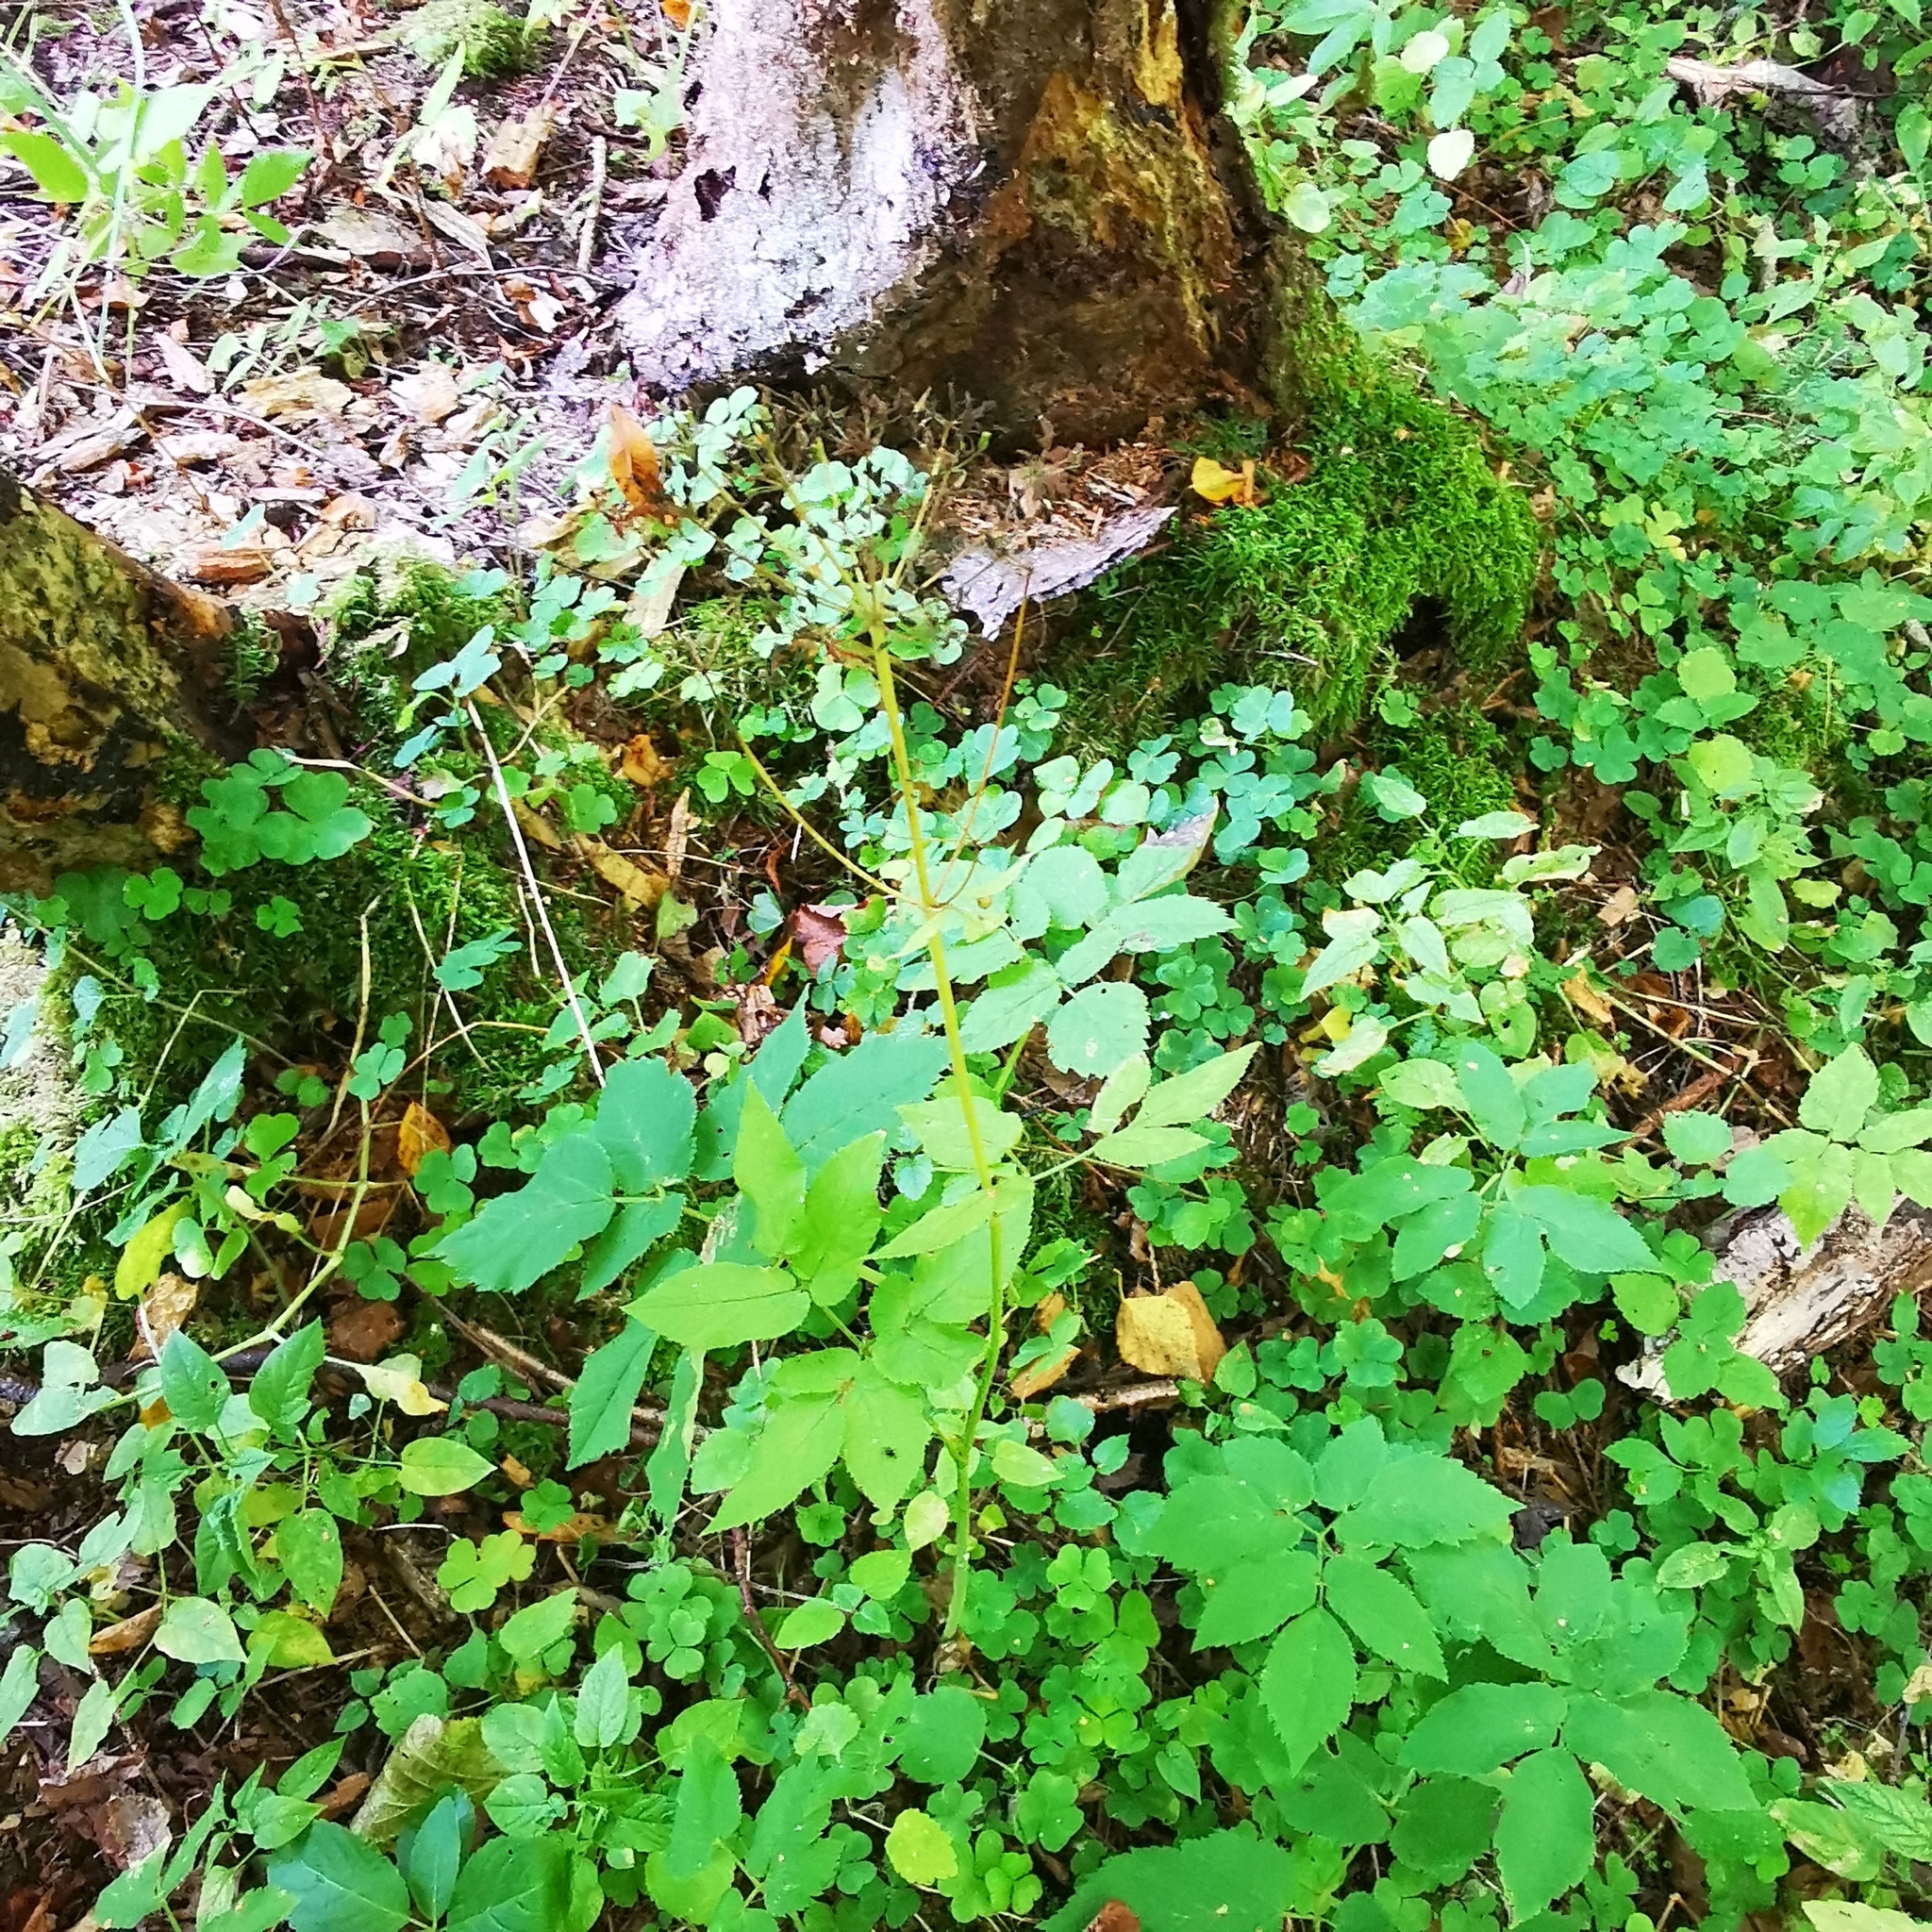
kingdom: Plantae
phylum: Tracheophyta
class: Magnoliopsida
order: Apiales
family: Apiaceae
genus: Aegopodium
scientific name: Aegopodium podagraria
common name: Ground-elder
